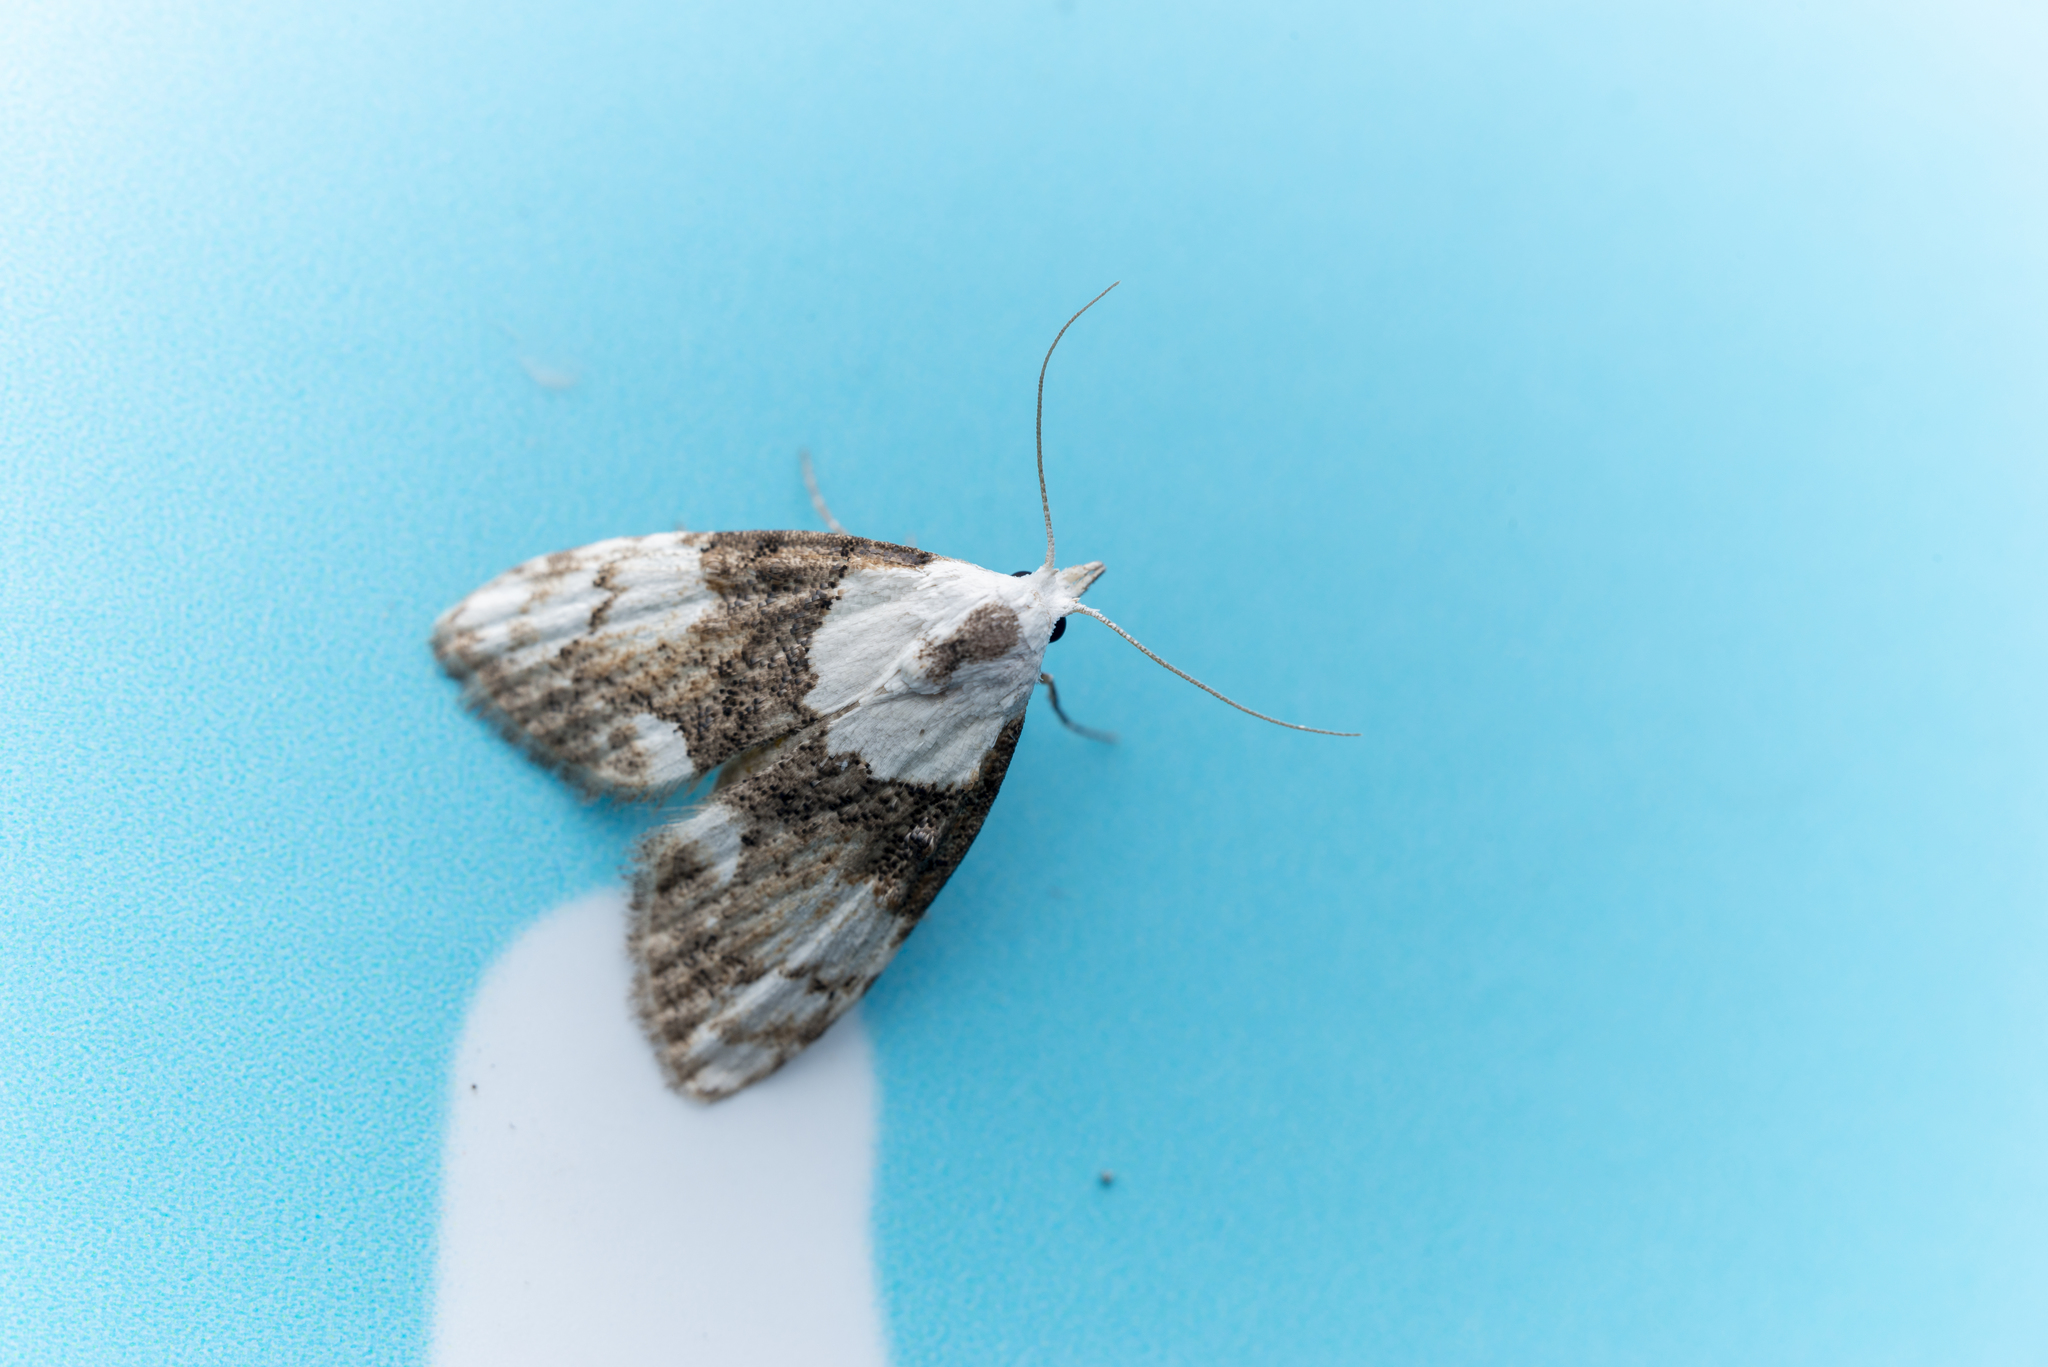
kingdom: Animalia
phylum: Arthropoda
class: Insecta
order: Lepidoptera
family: Nolidae
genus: Manoba
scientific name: Manoba lativittata
